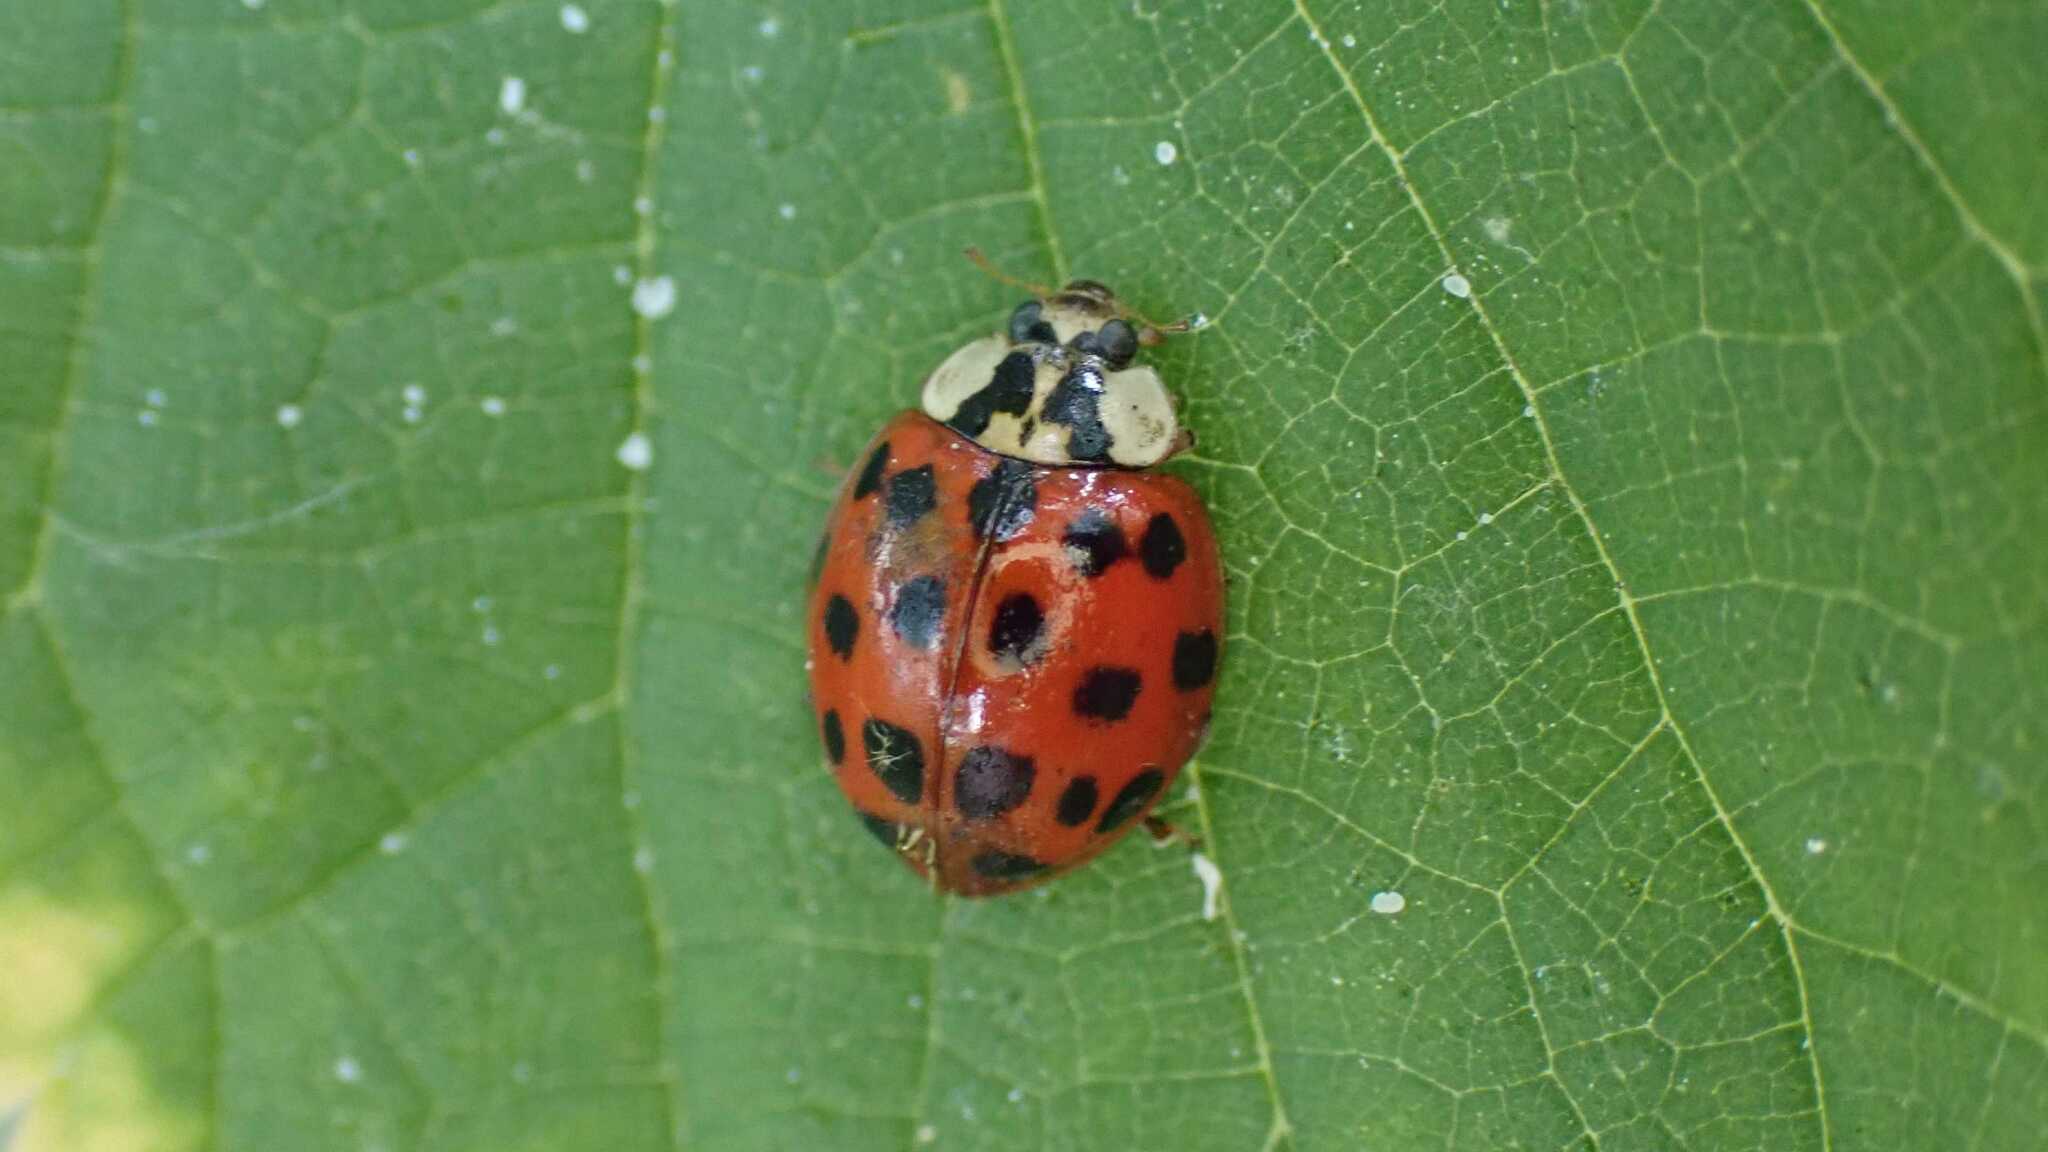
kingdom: Animalia
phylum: Arthropoda
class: Insecta
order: Coleoptera
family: Coccinellidae
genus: Harmonia
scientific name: Harmonia axyridis
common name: Harlequin ladybird
